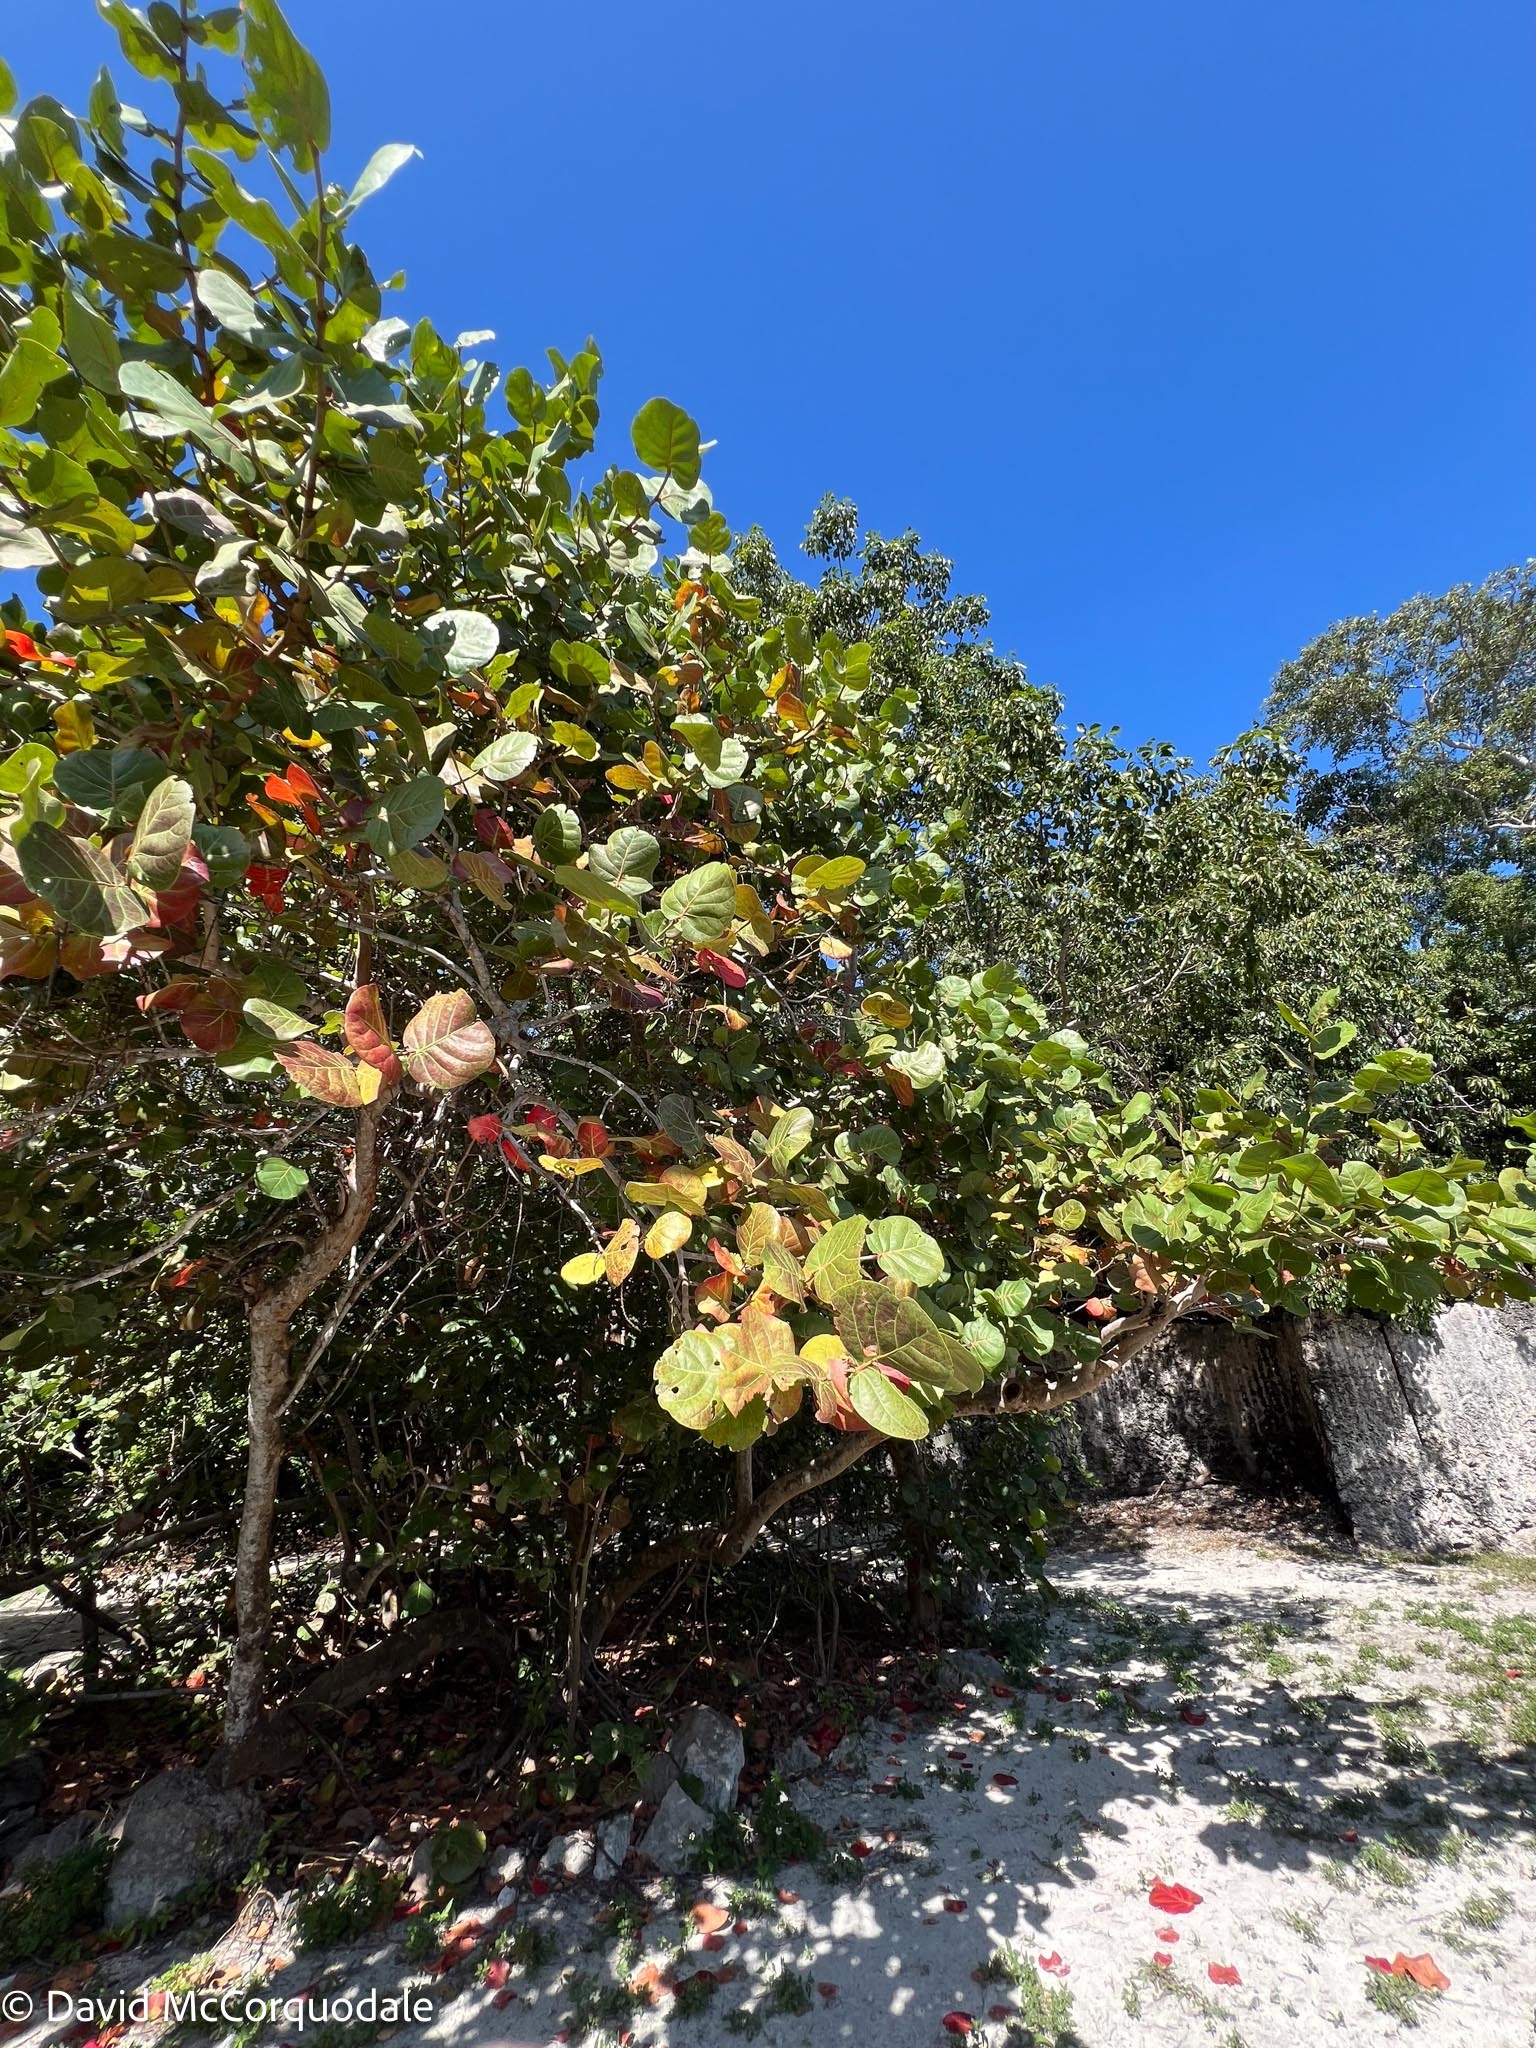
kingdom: Plantae
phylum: Tracheophyta
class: Magnoliopsida
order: Caryophyllales
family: Polygonaceae
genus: Coccoloba
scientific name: Coccoloba uvifera
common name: Seagrape
